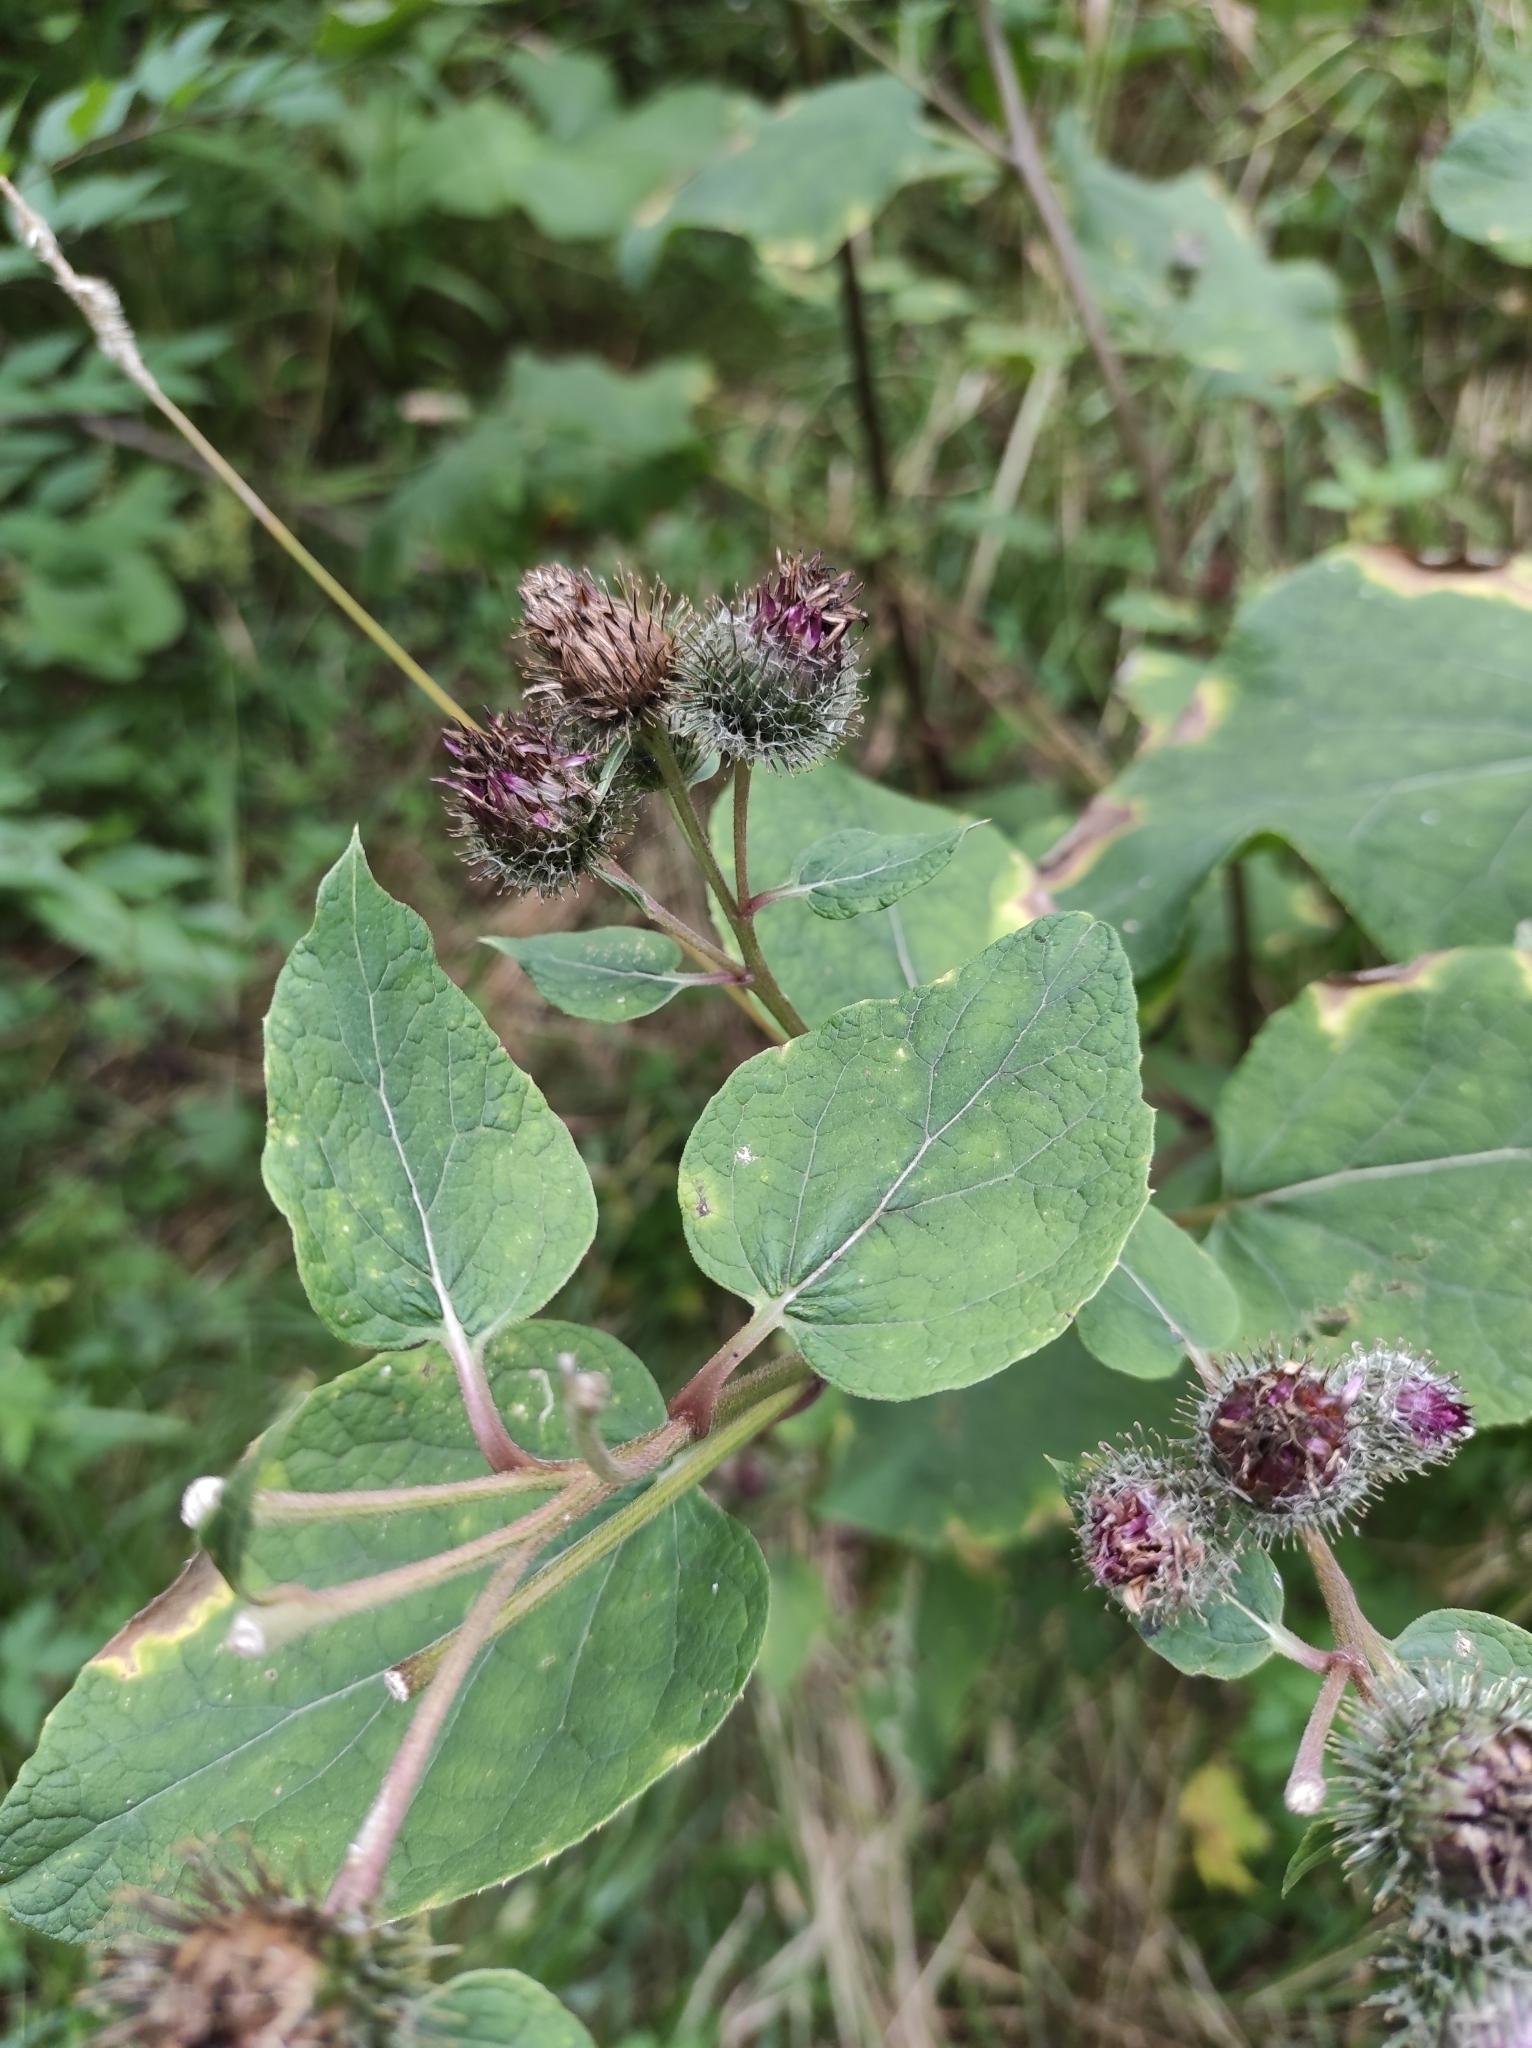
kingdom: Plantae
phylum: Tracheophyta
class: Magnoliopsida
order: Asterales
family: Asteraceae
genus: Arctium
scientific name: Arctium tomentosum
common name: Woolly burdock
